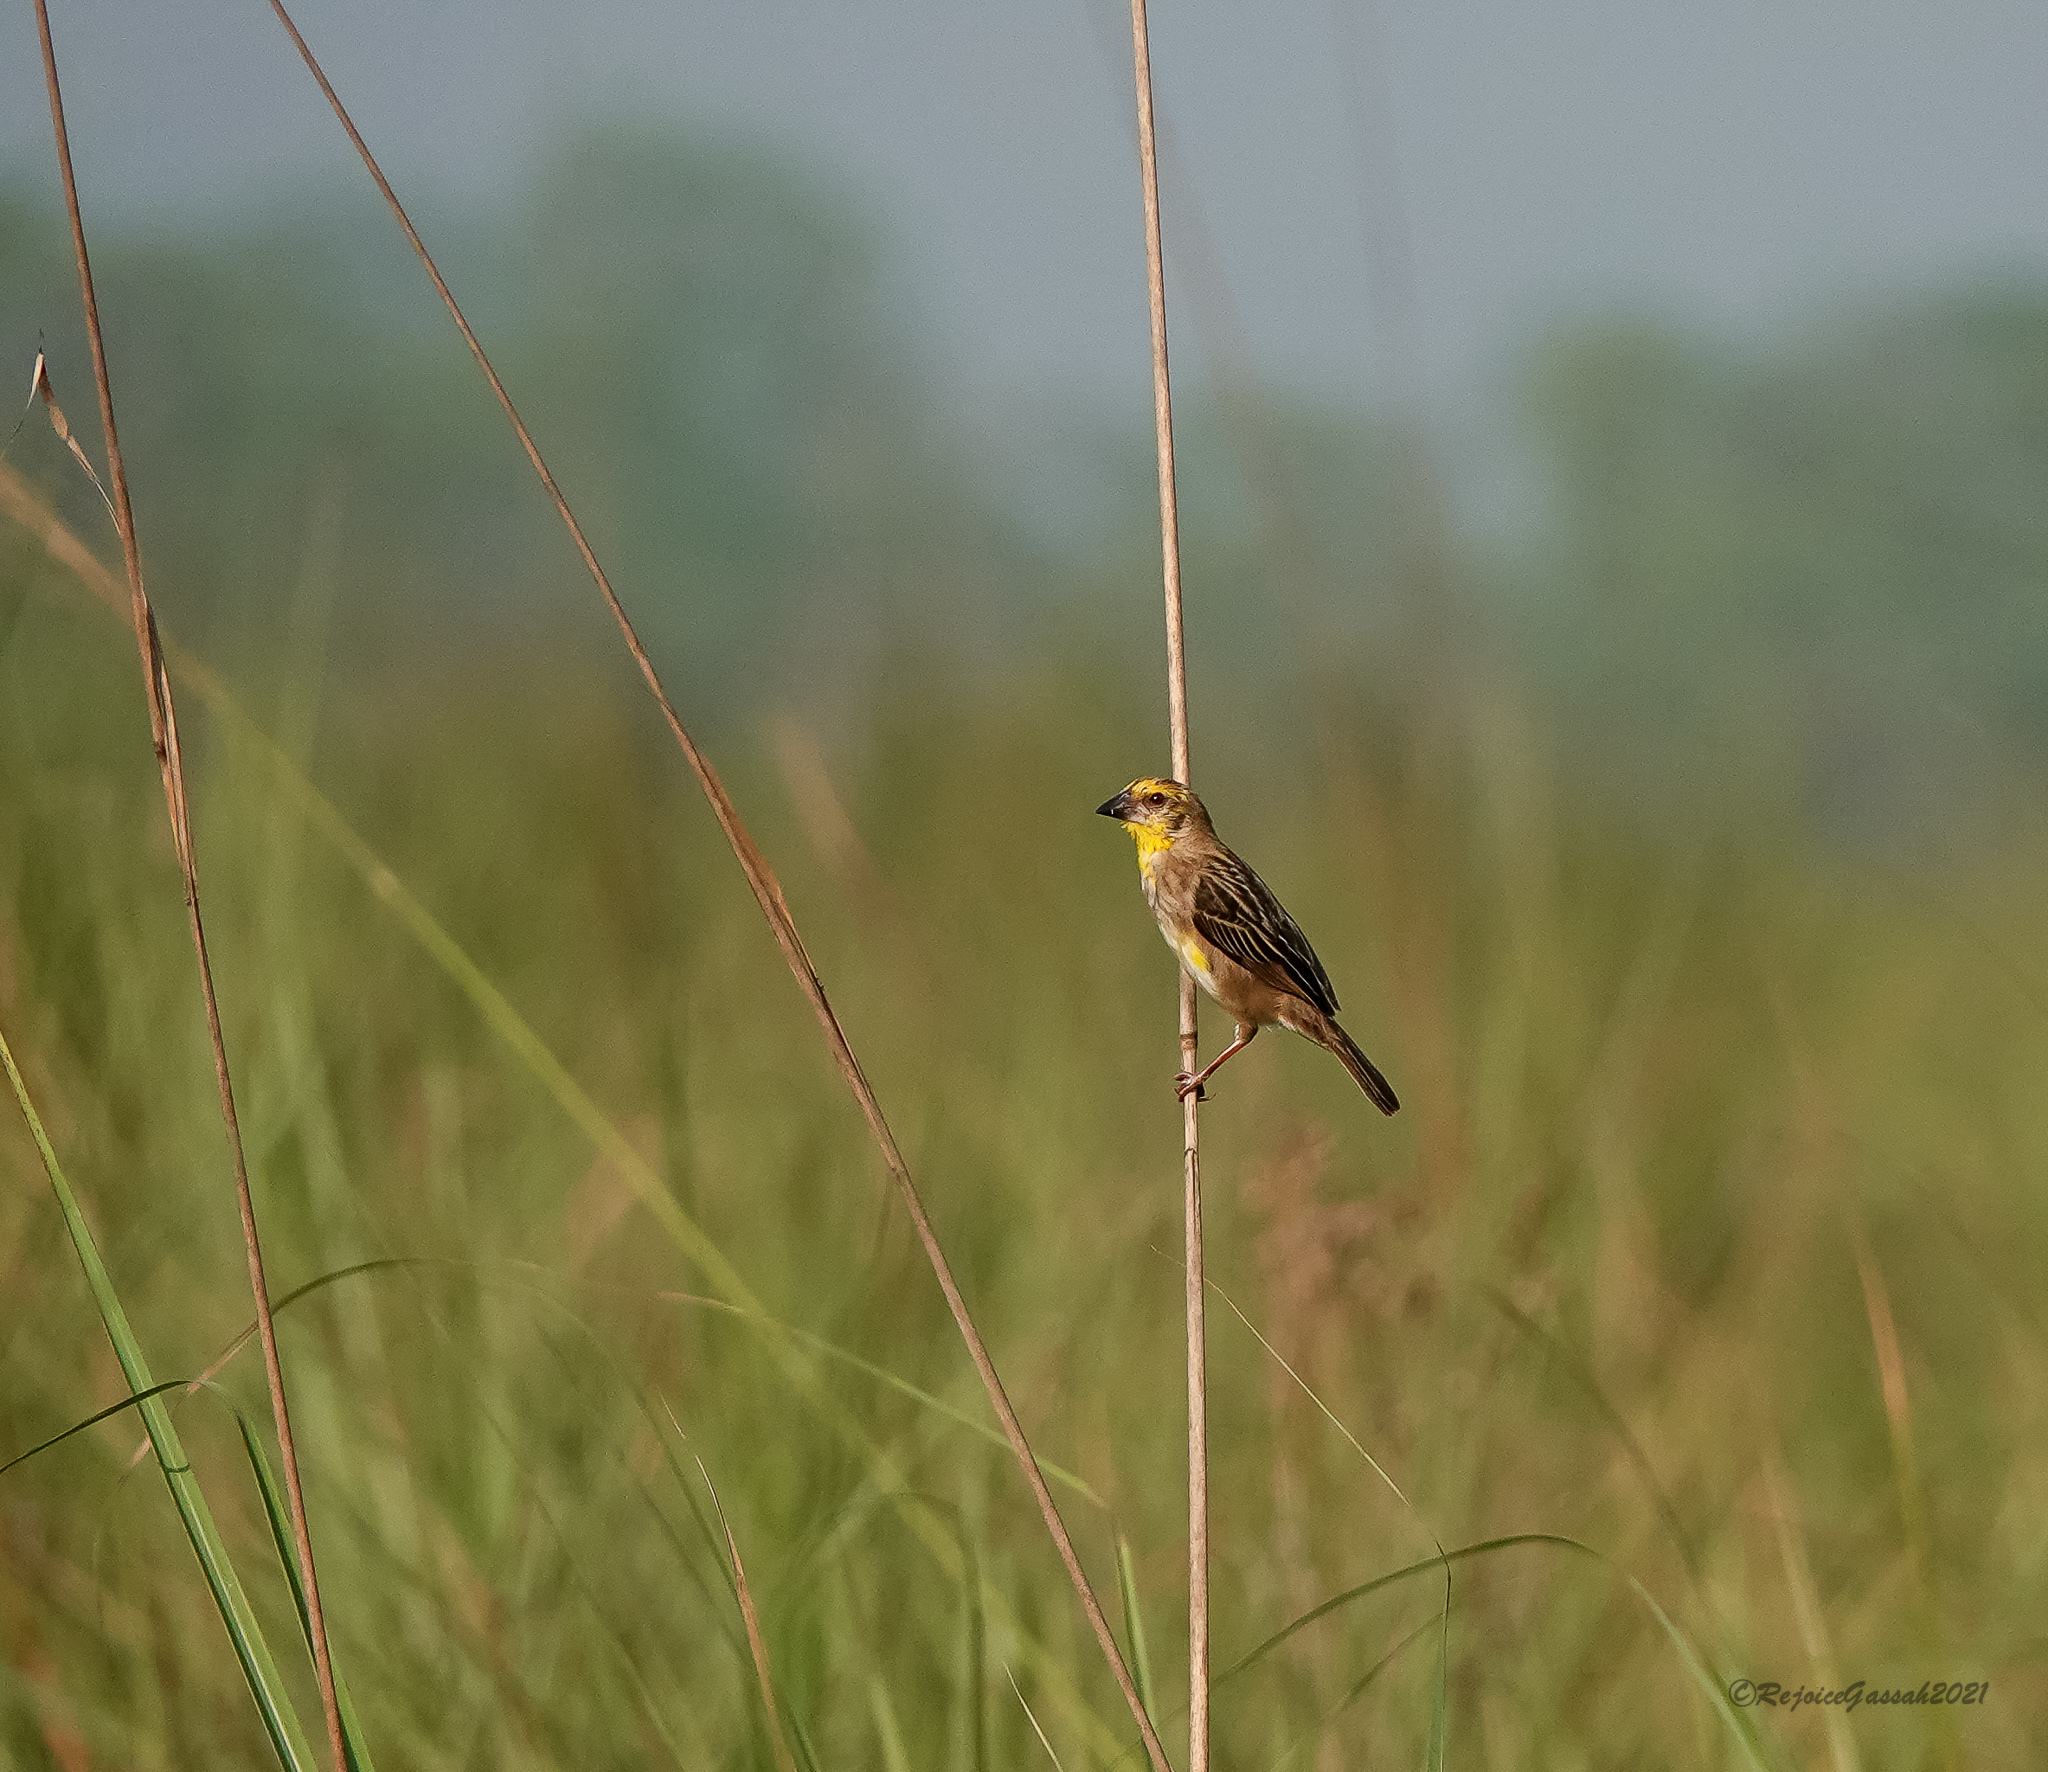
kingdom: Animalia
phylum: Chordata
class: Aves
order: Passeriformes
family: Ploceidae
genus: Ploceus
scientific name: Ploceus megarhynchus
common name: Finn's weaver
